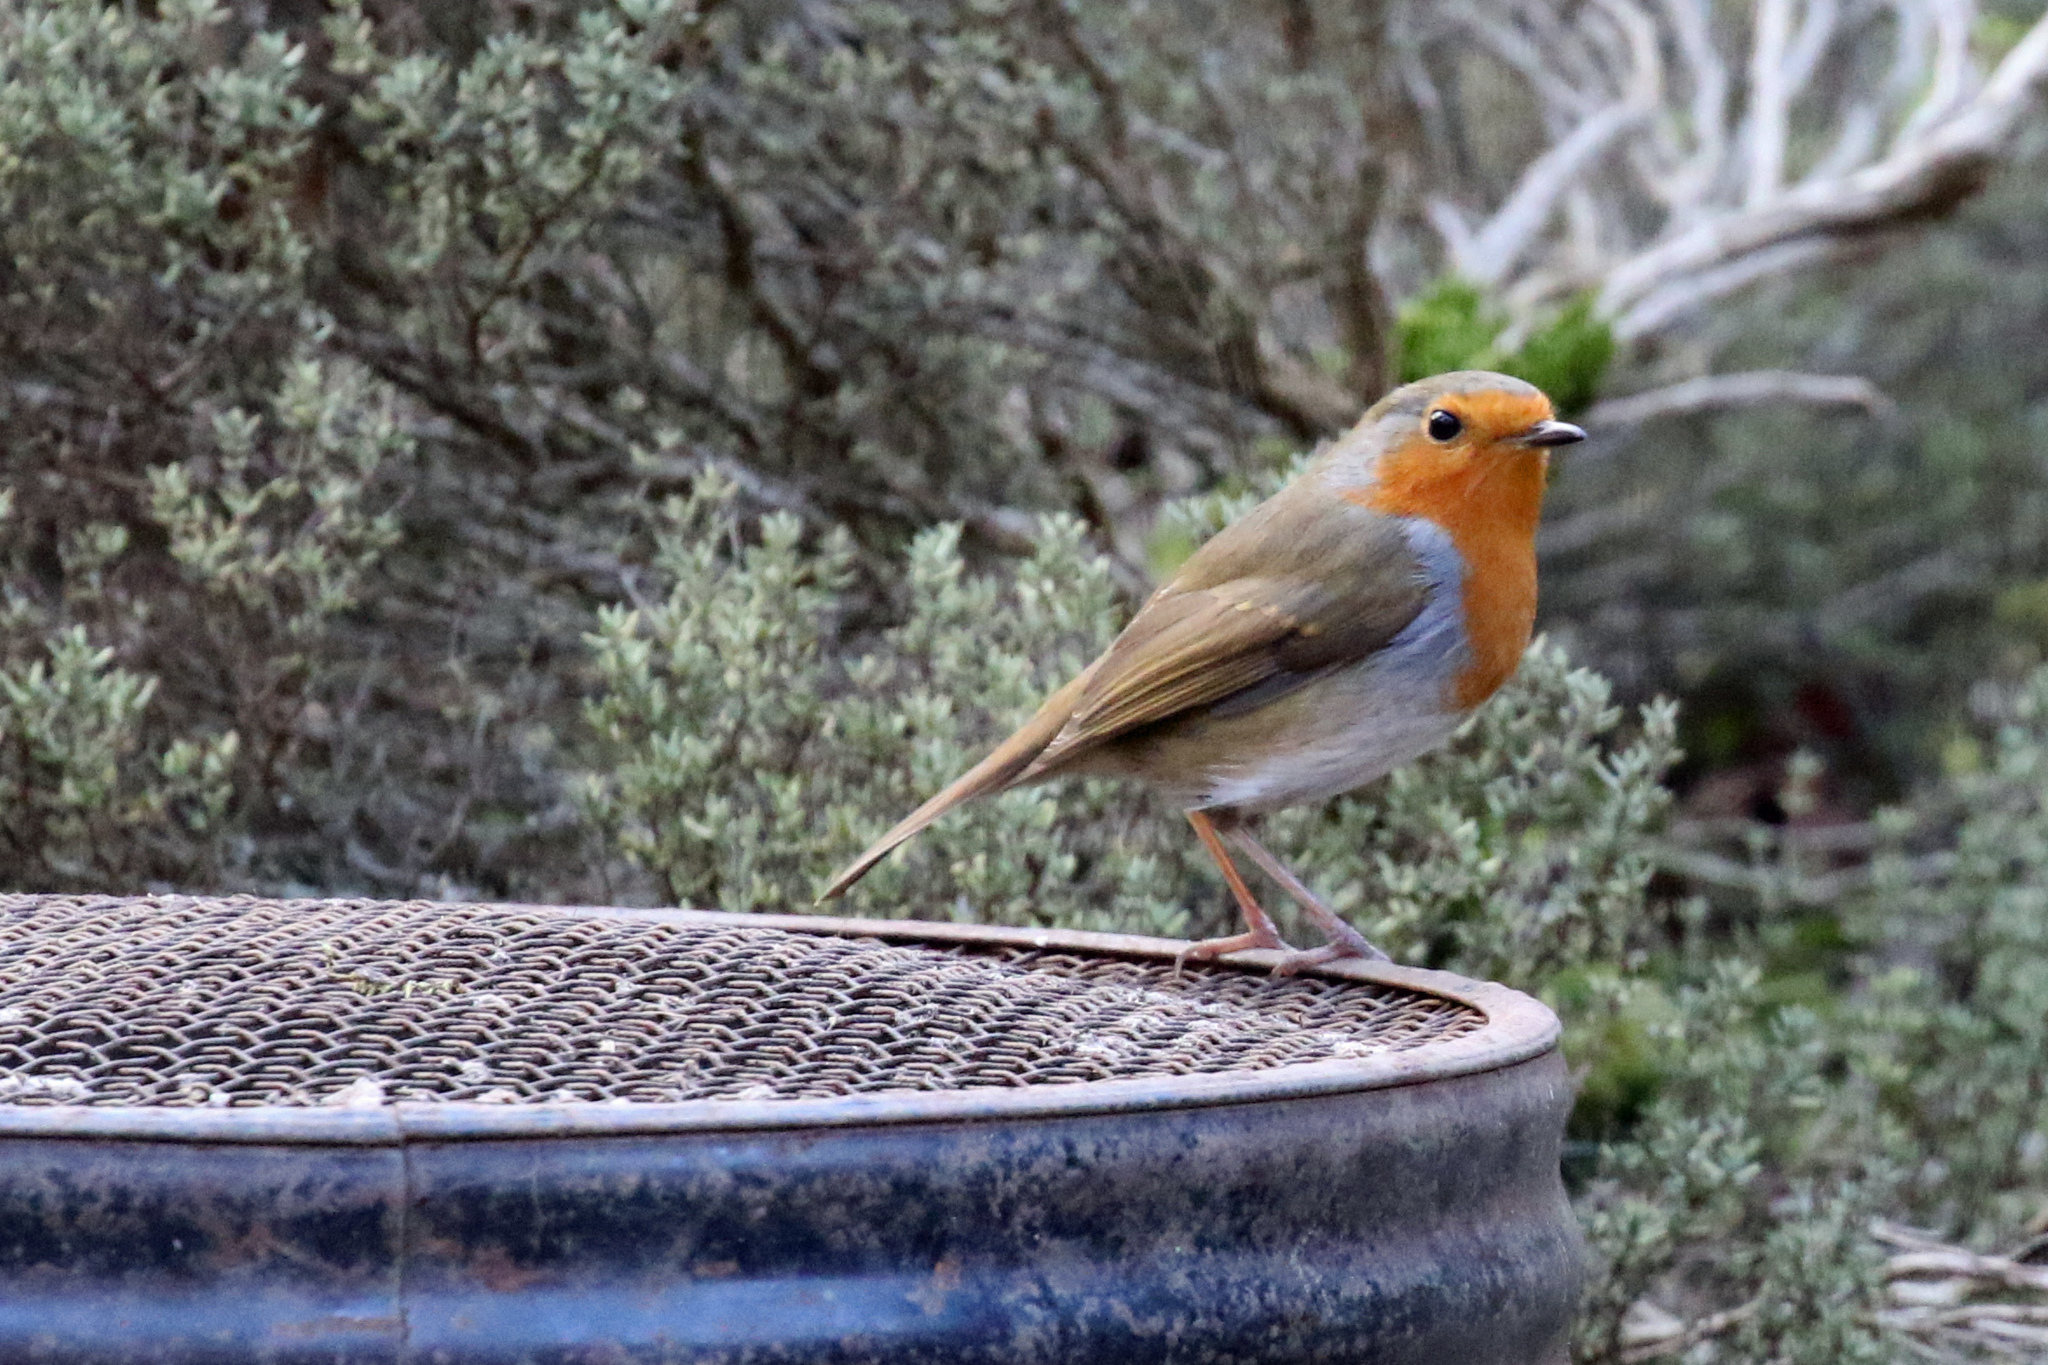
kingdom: Animalia
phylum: Chordata
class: Aves
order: Passeriformes
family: Muscicapidae
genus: Erithacus
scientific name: Erithacus rubecula
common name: European robin
